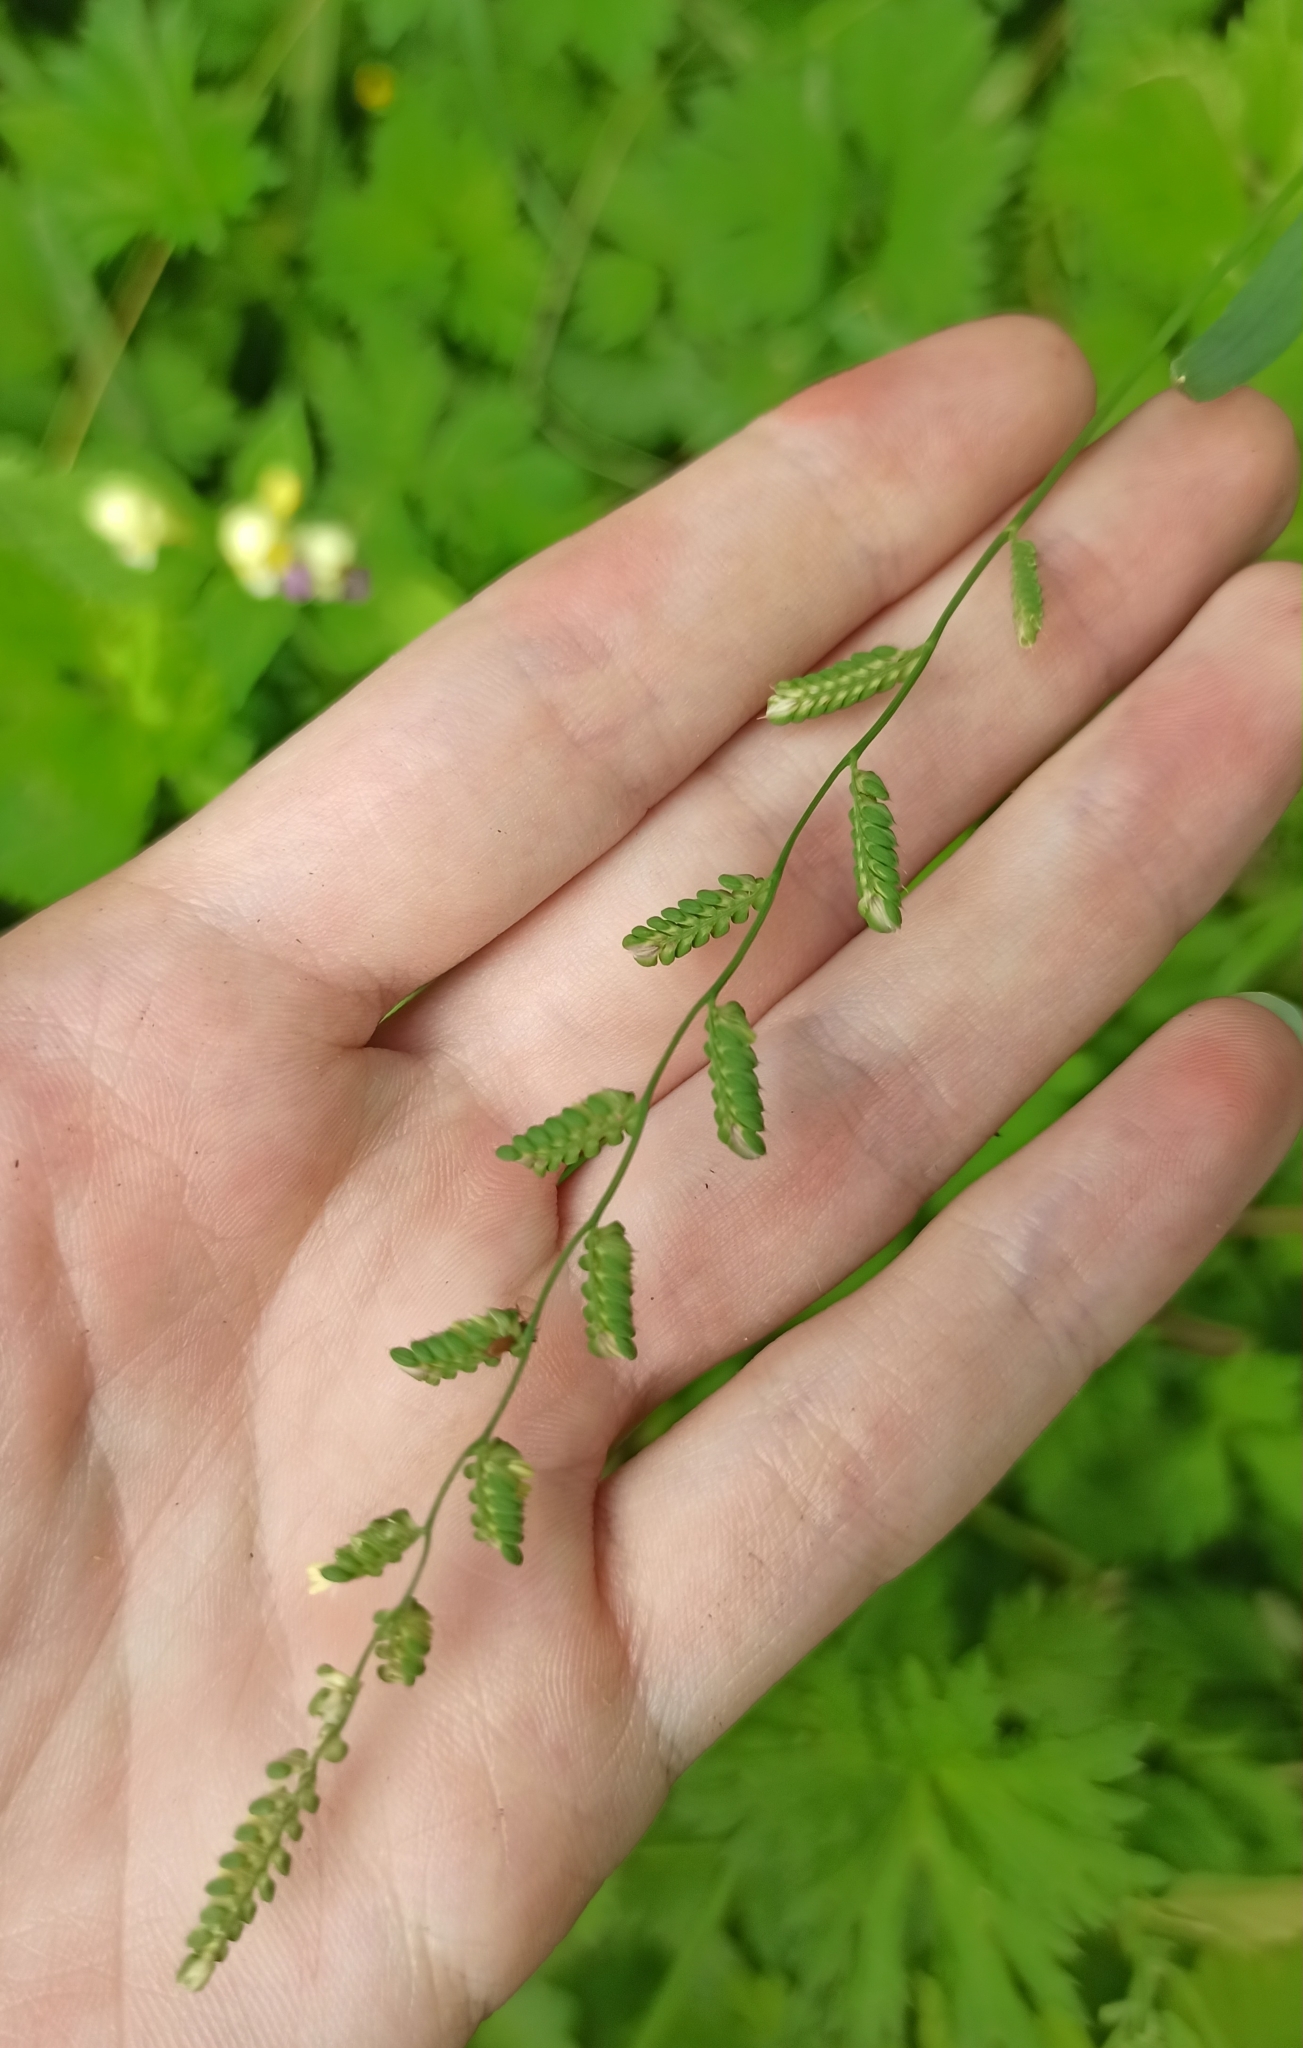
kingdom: Plantae
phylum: Tracheophyta
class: Liliopsida
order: Poales
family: Poaceae
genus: Beckmannia
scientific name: Beckmannia eruciformis
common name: European slough-grass
